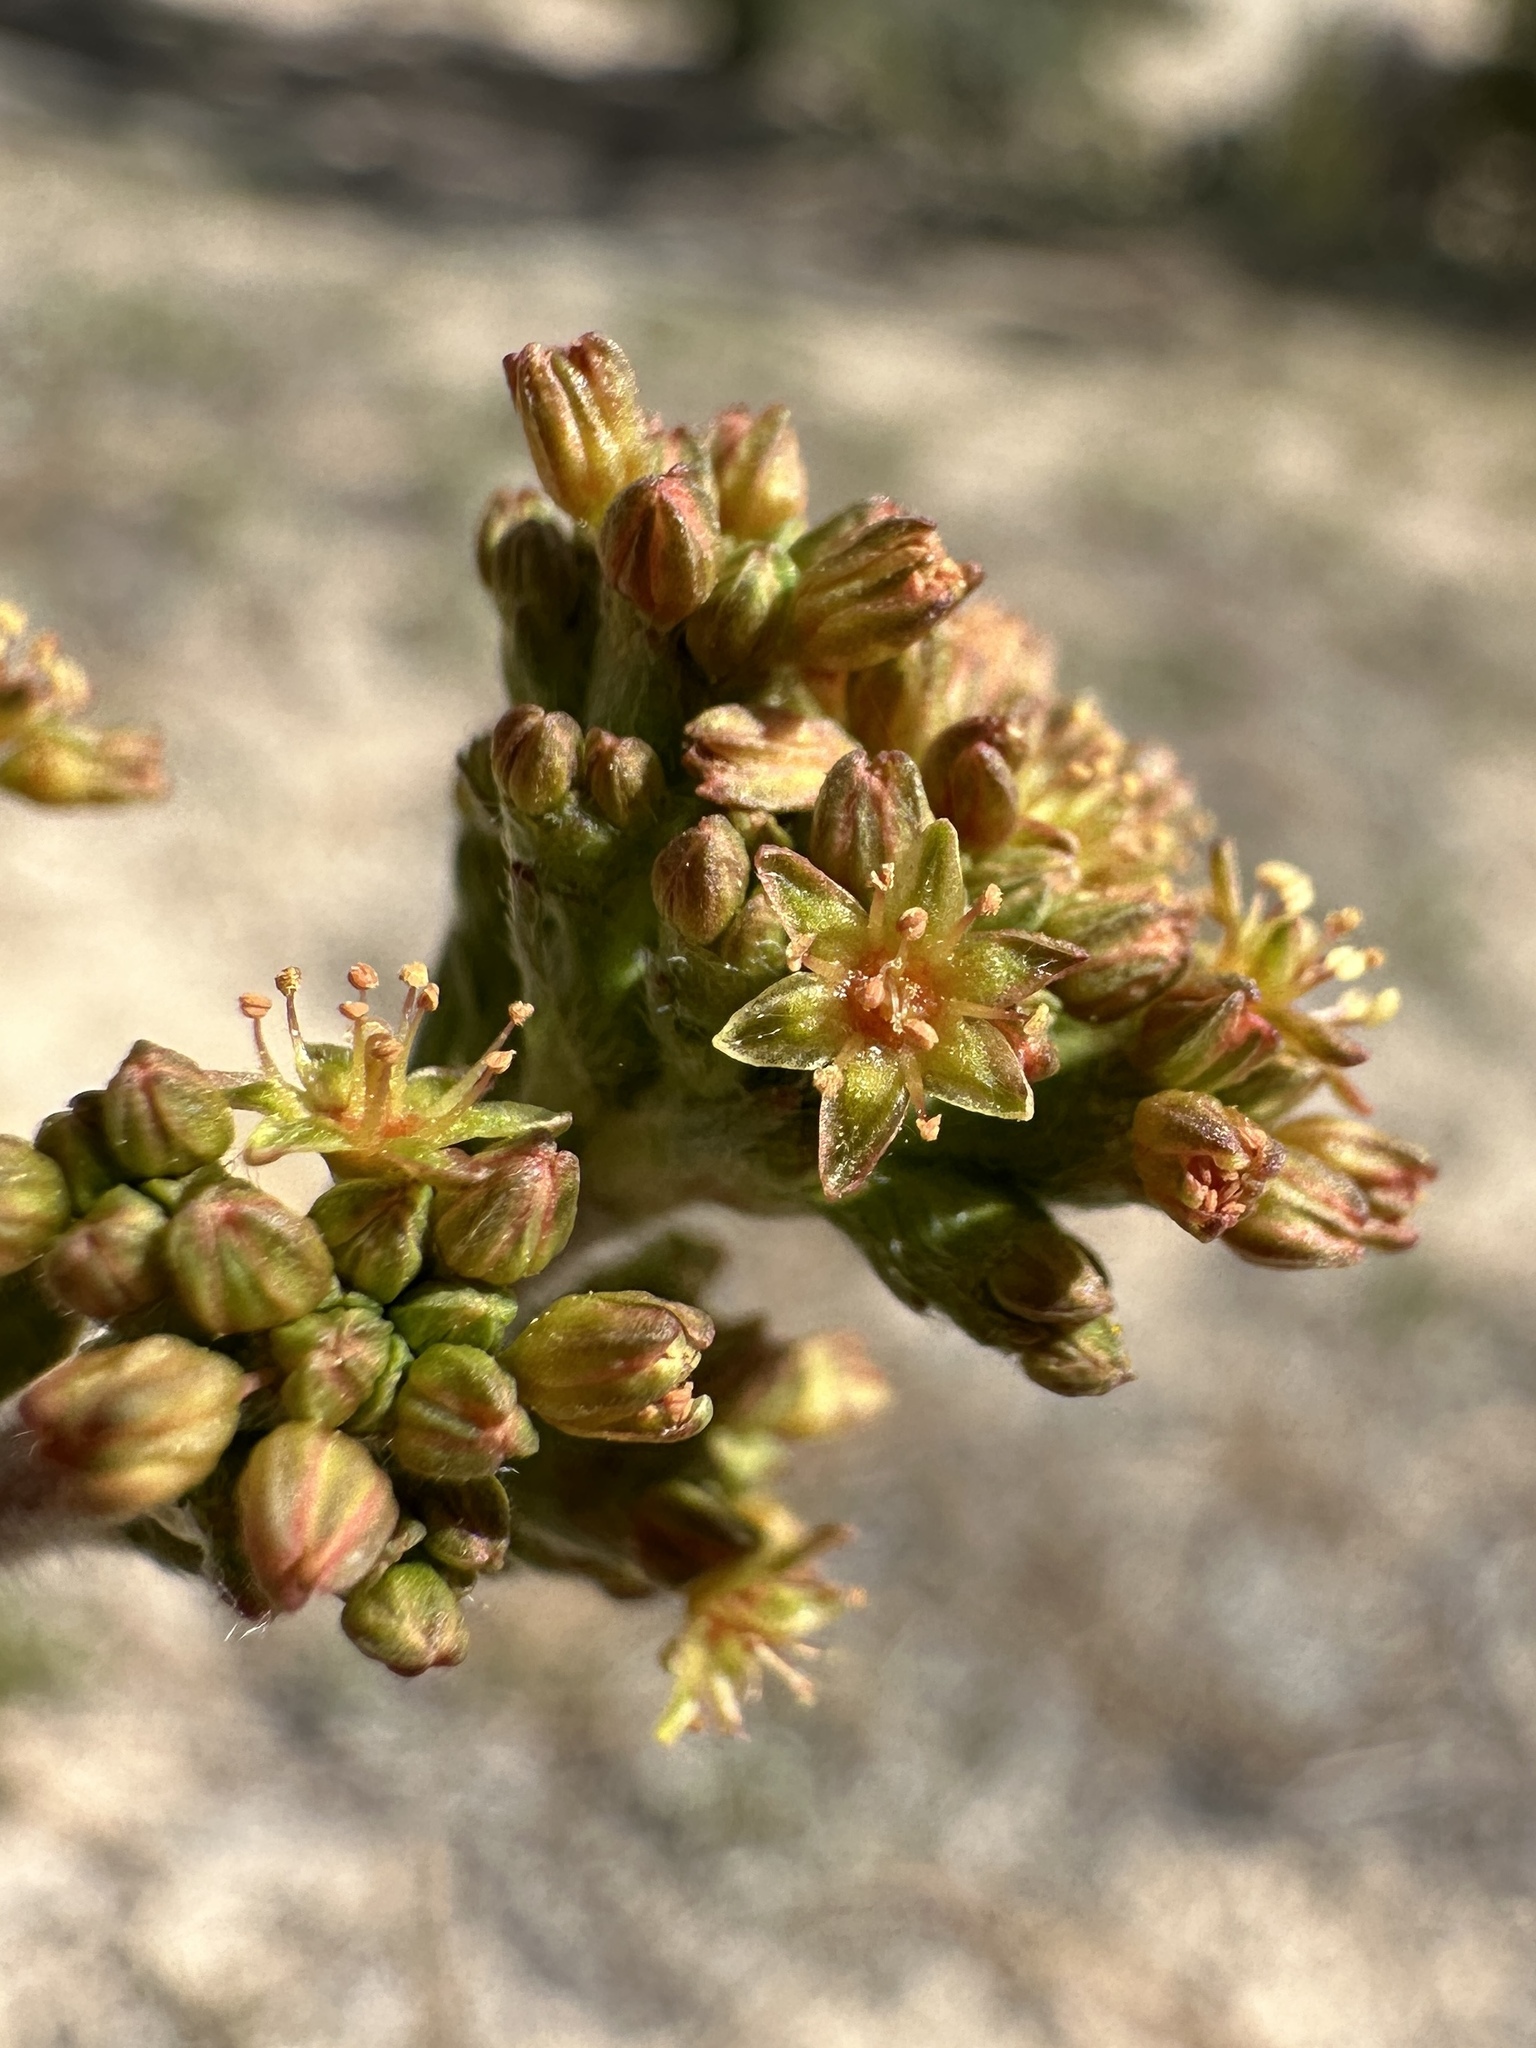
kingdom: Plantae
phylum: Tracheophyta
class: Magnoliopsida
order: Caryophyllales
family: Polygonaceae
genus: Eriogonum
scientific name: Eriogonum alatum
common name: Winged eriogonum
